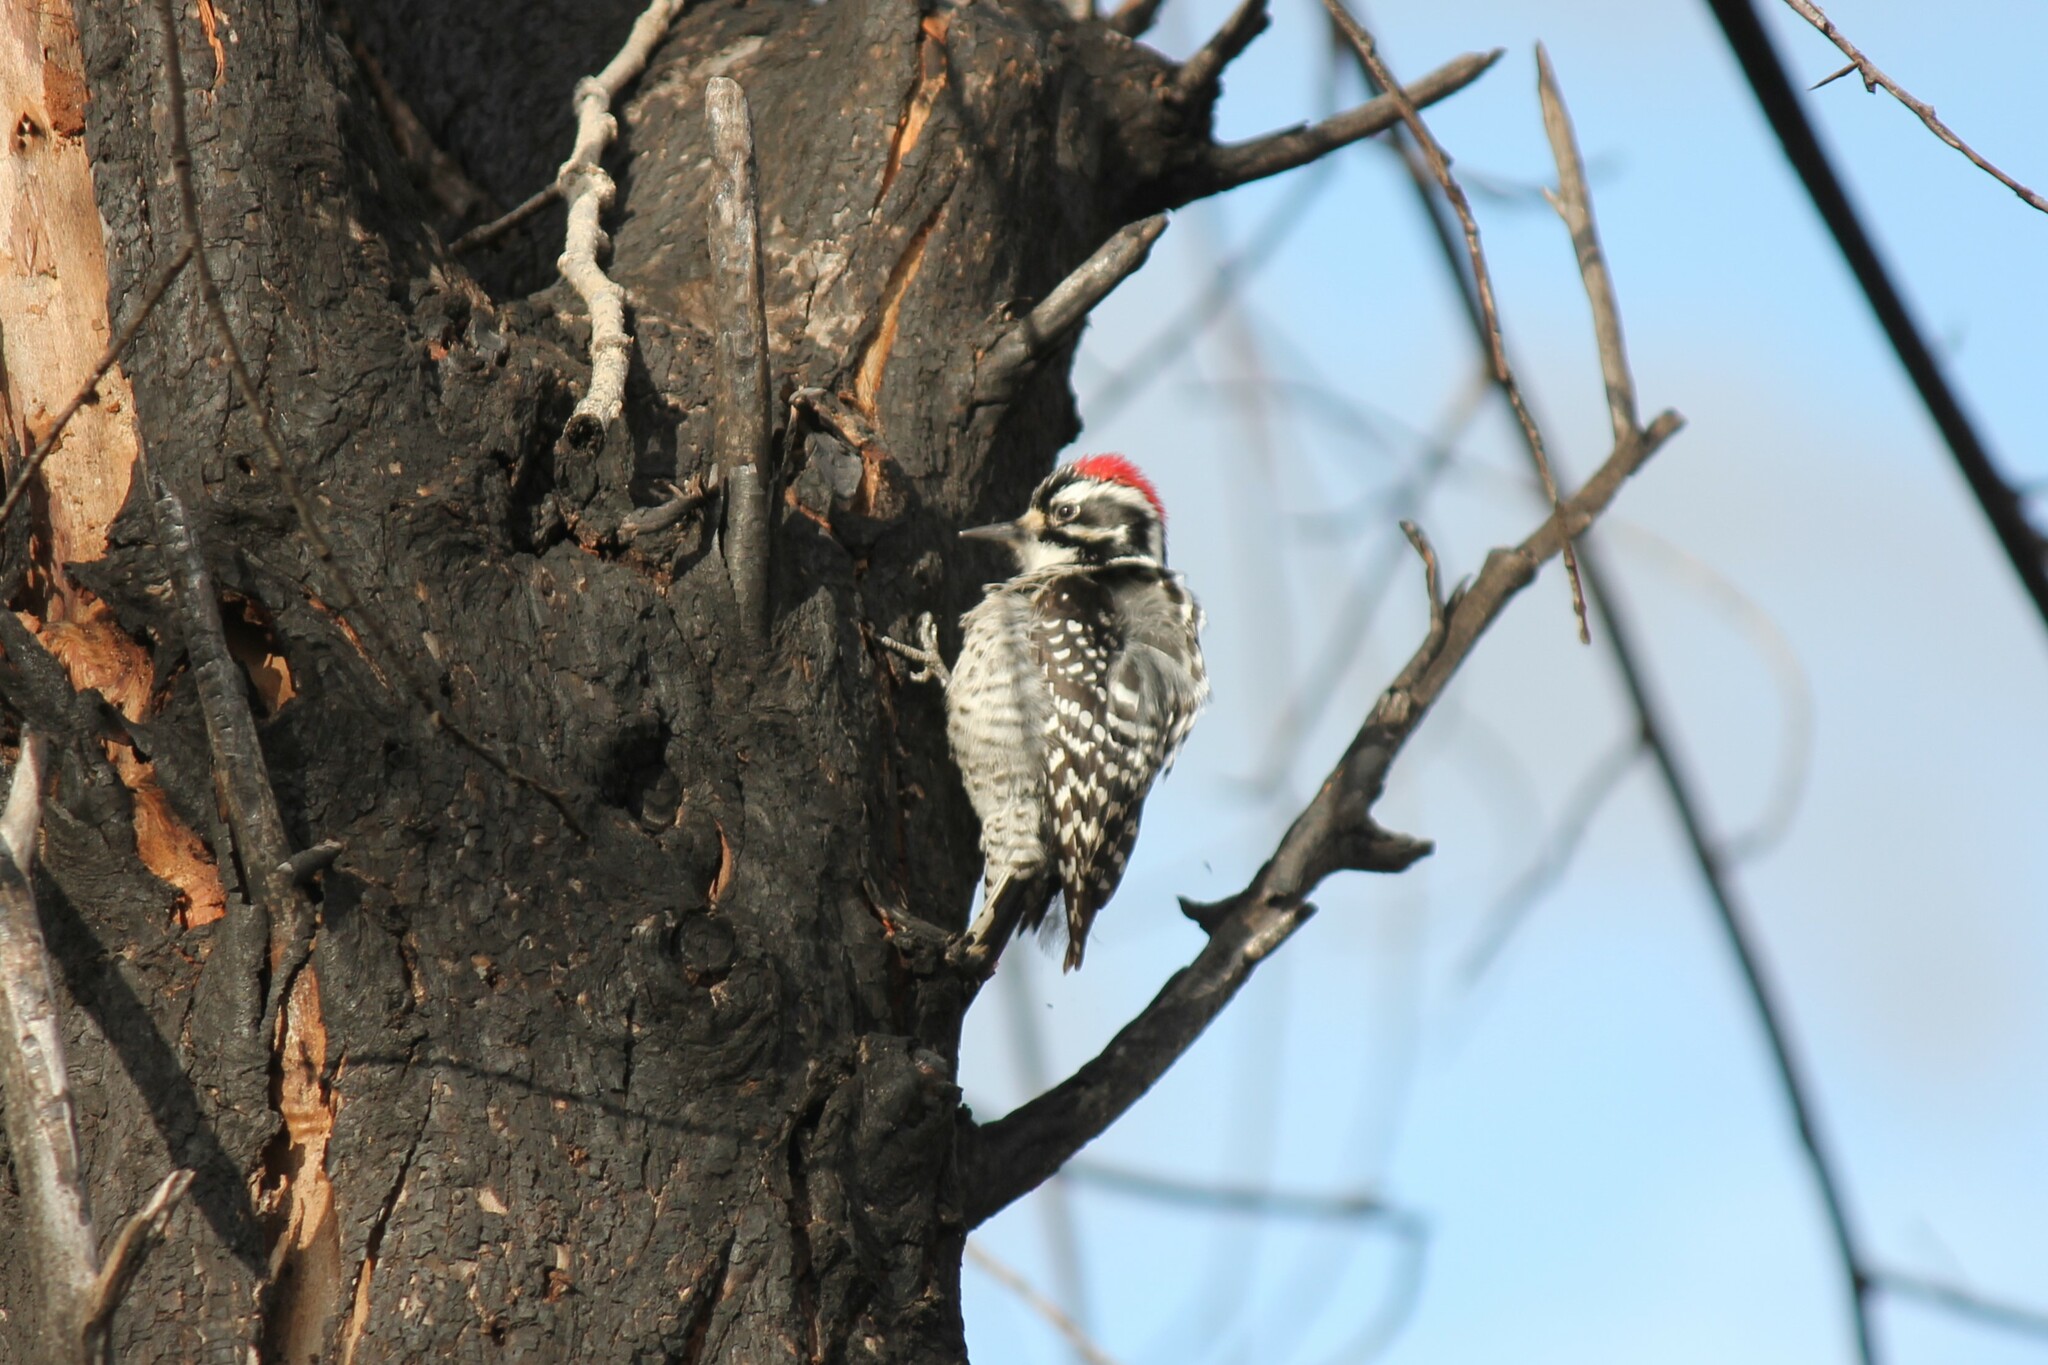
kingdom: Animalia
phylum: Chordata
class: Aves
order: Piciformes
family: Picidae
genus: Dryobates
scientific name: Dryobates nuttallii
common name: Nuttall's woodpecker
